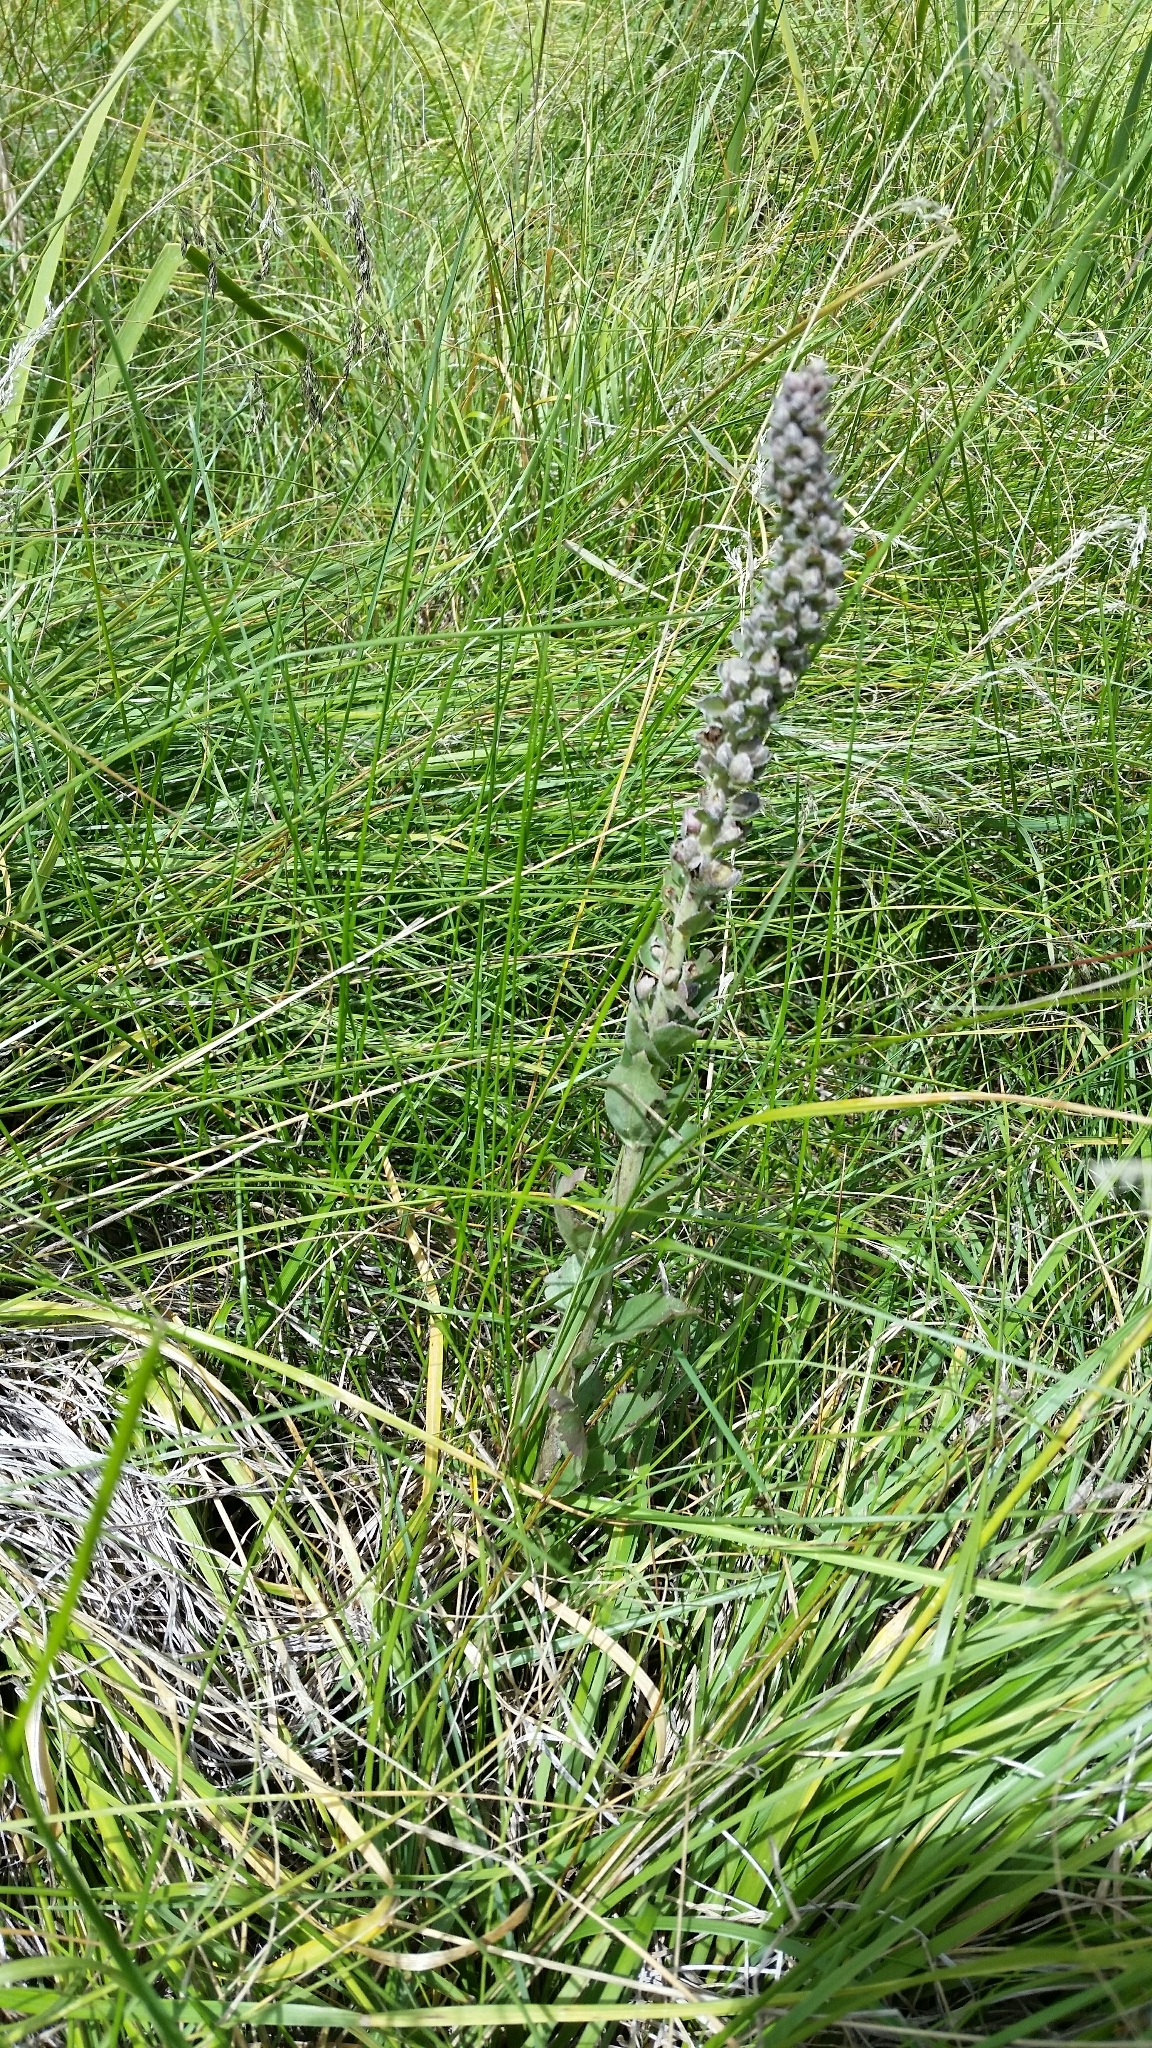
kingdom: Plantae
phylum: Tracheophyta
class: Magnoliopsida
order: Lamiales
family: Plantaginaceae
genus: Veronica
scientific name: Veronica plantaginea
